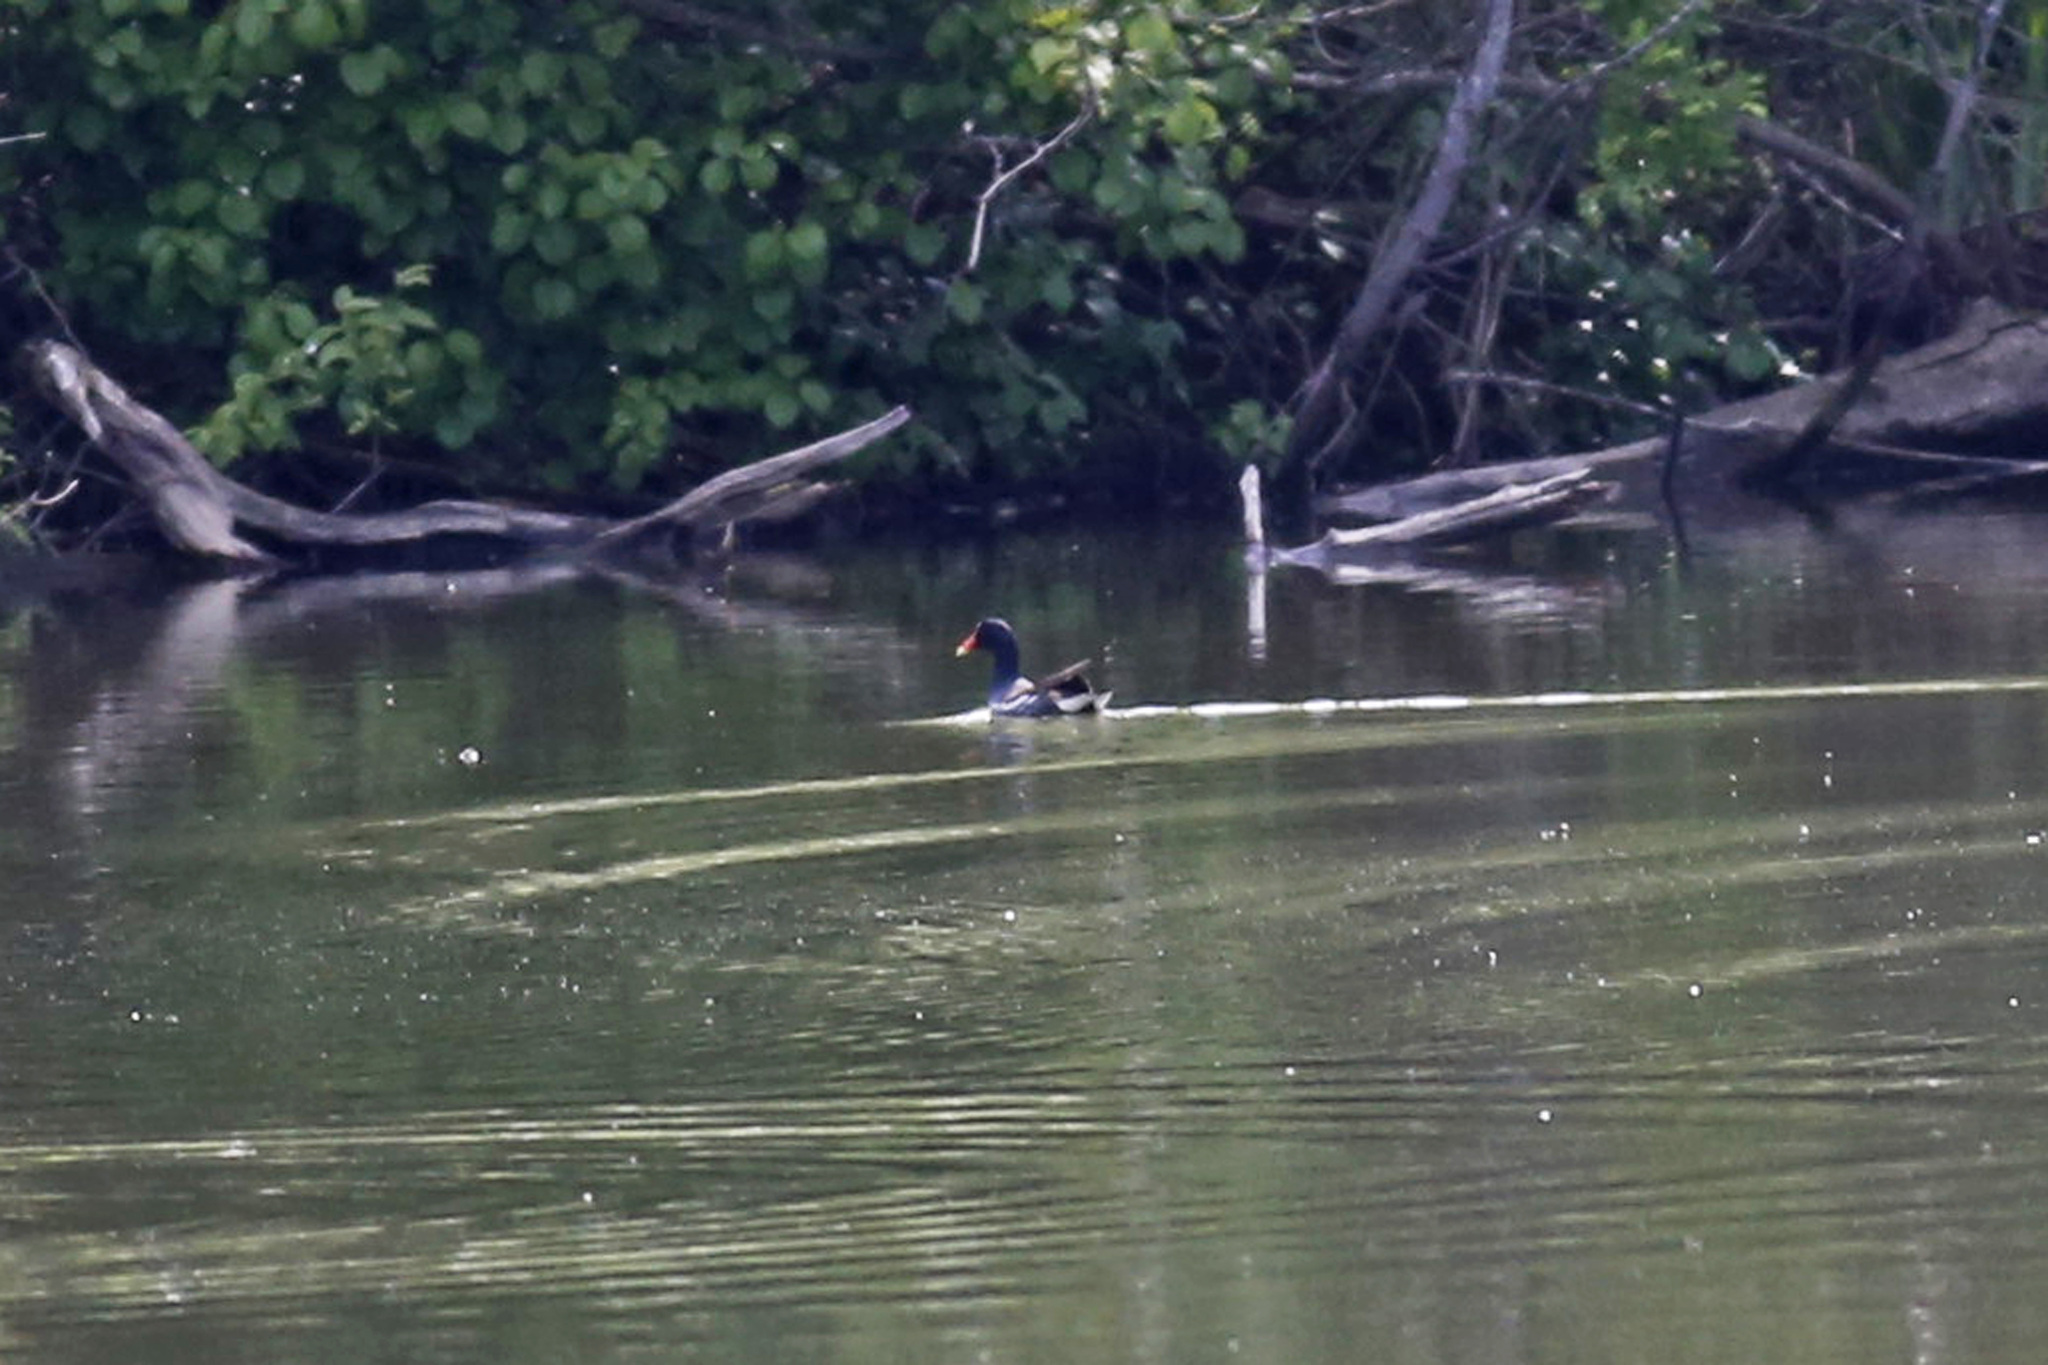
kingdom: Animalia
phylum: Chordata
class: Aves
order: Gruiformes
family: Rallidae
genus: Gallinula
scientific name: Gallinula chloropus
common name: Common moorhen
